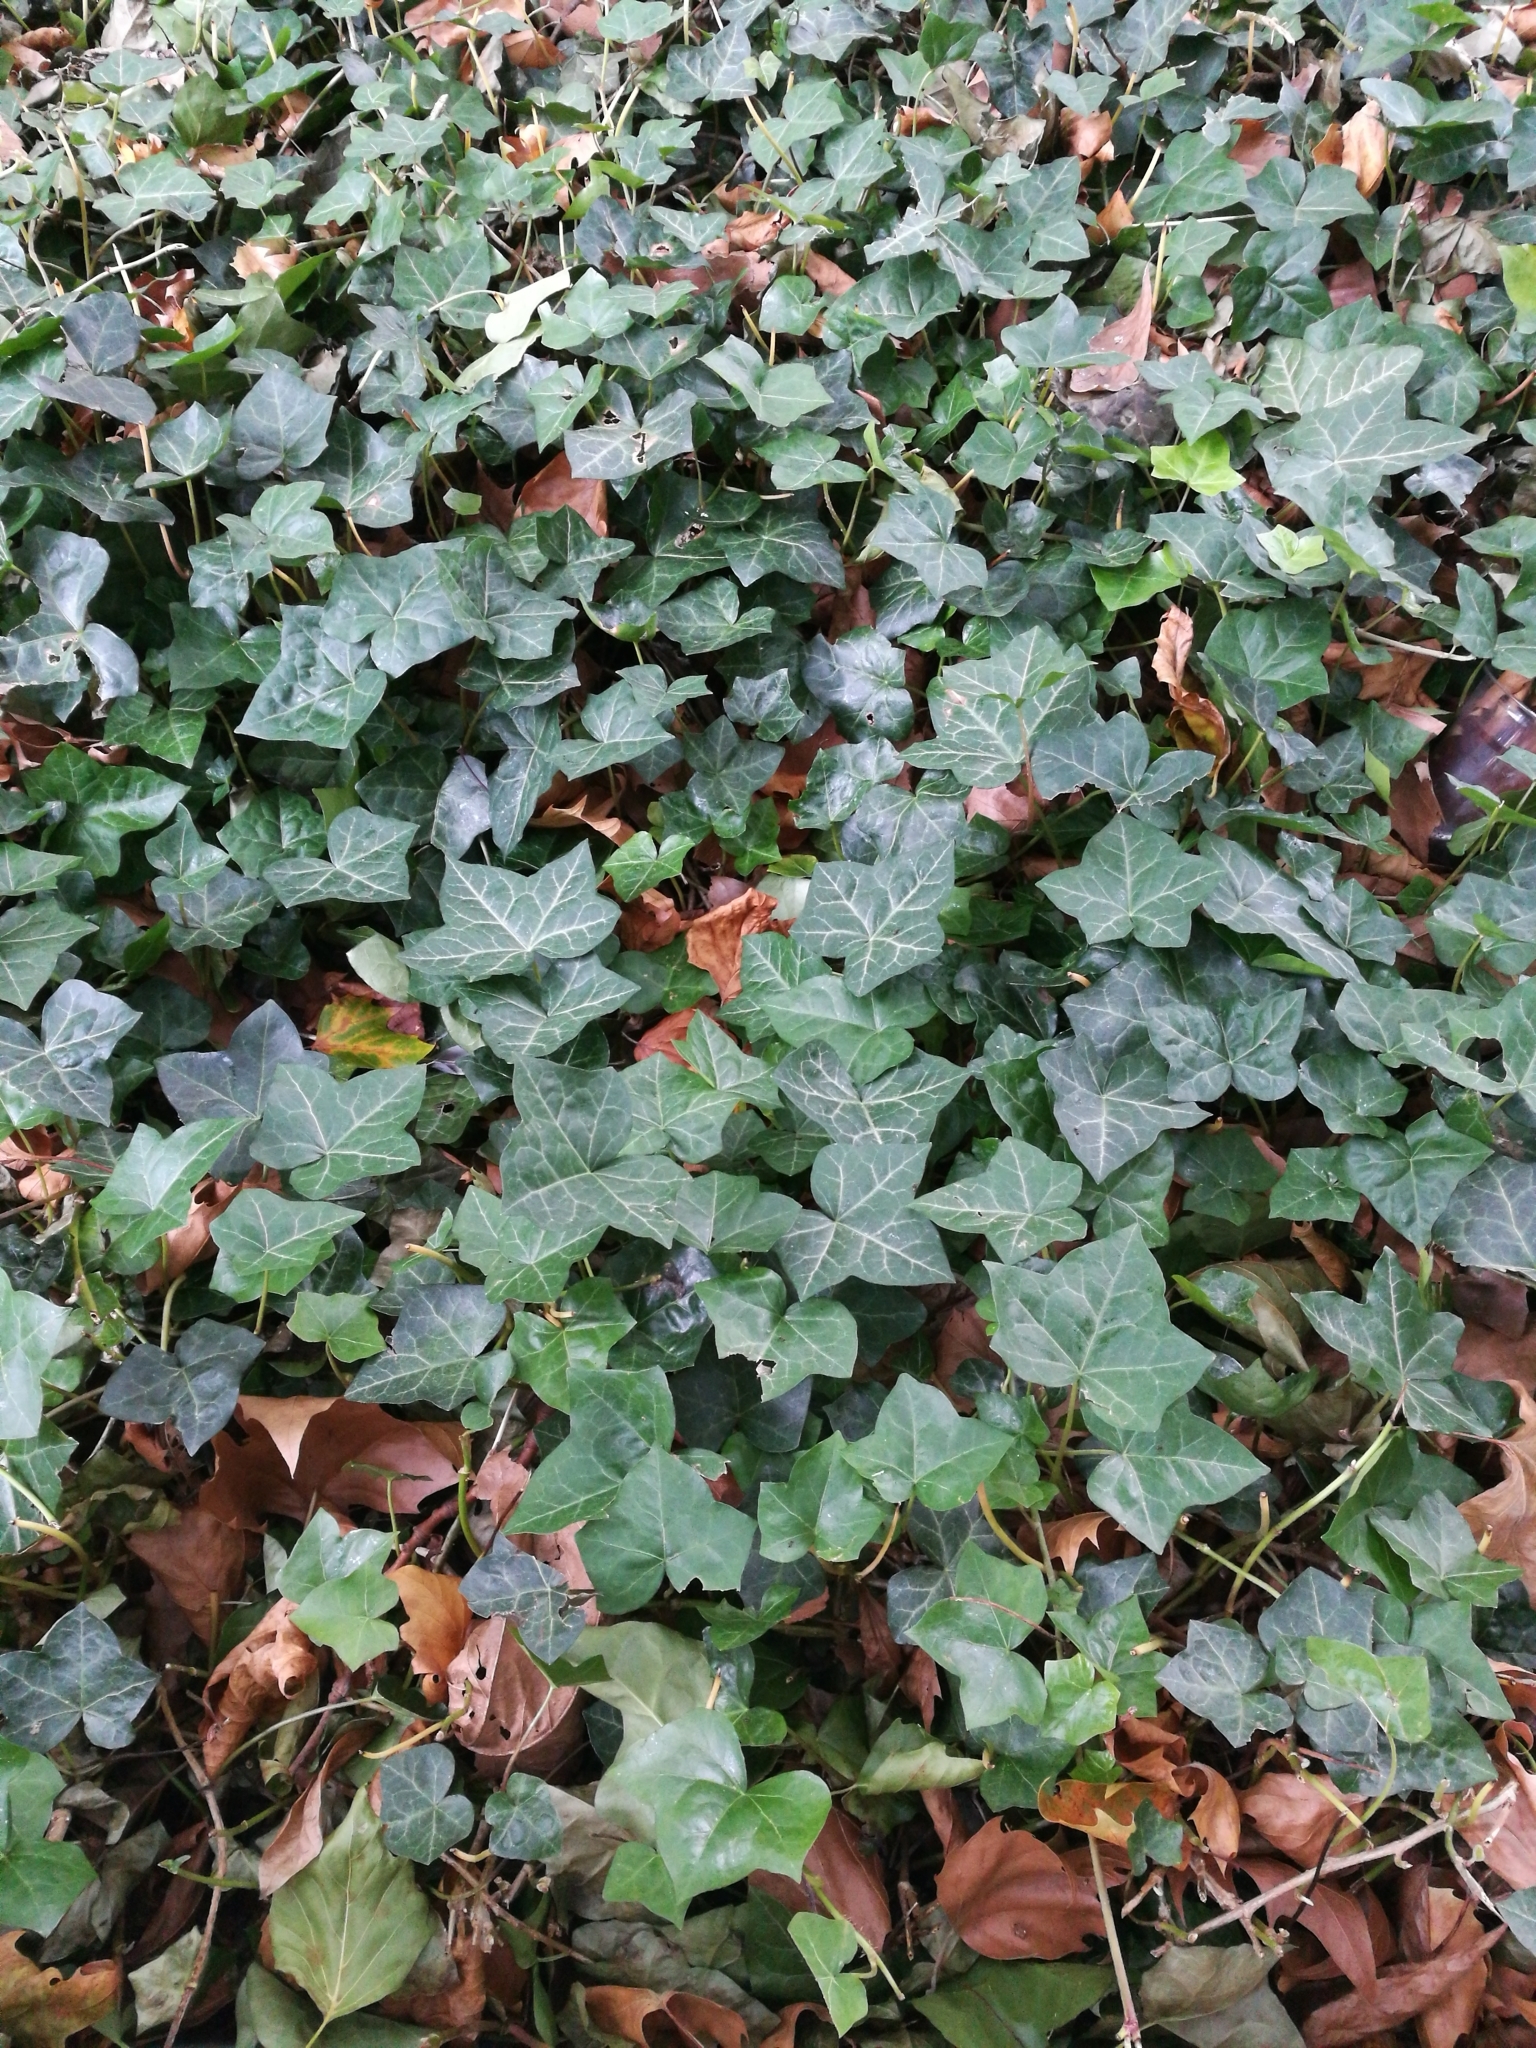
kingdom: Plantae
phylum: Tracheophyta
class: Magnoliopsida
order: Apiales
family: Araliaceae
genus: Hedera
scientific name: Hedera helix
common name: Ivy
